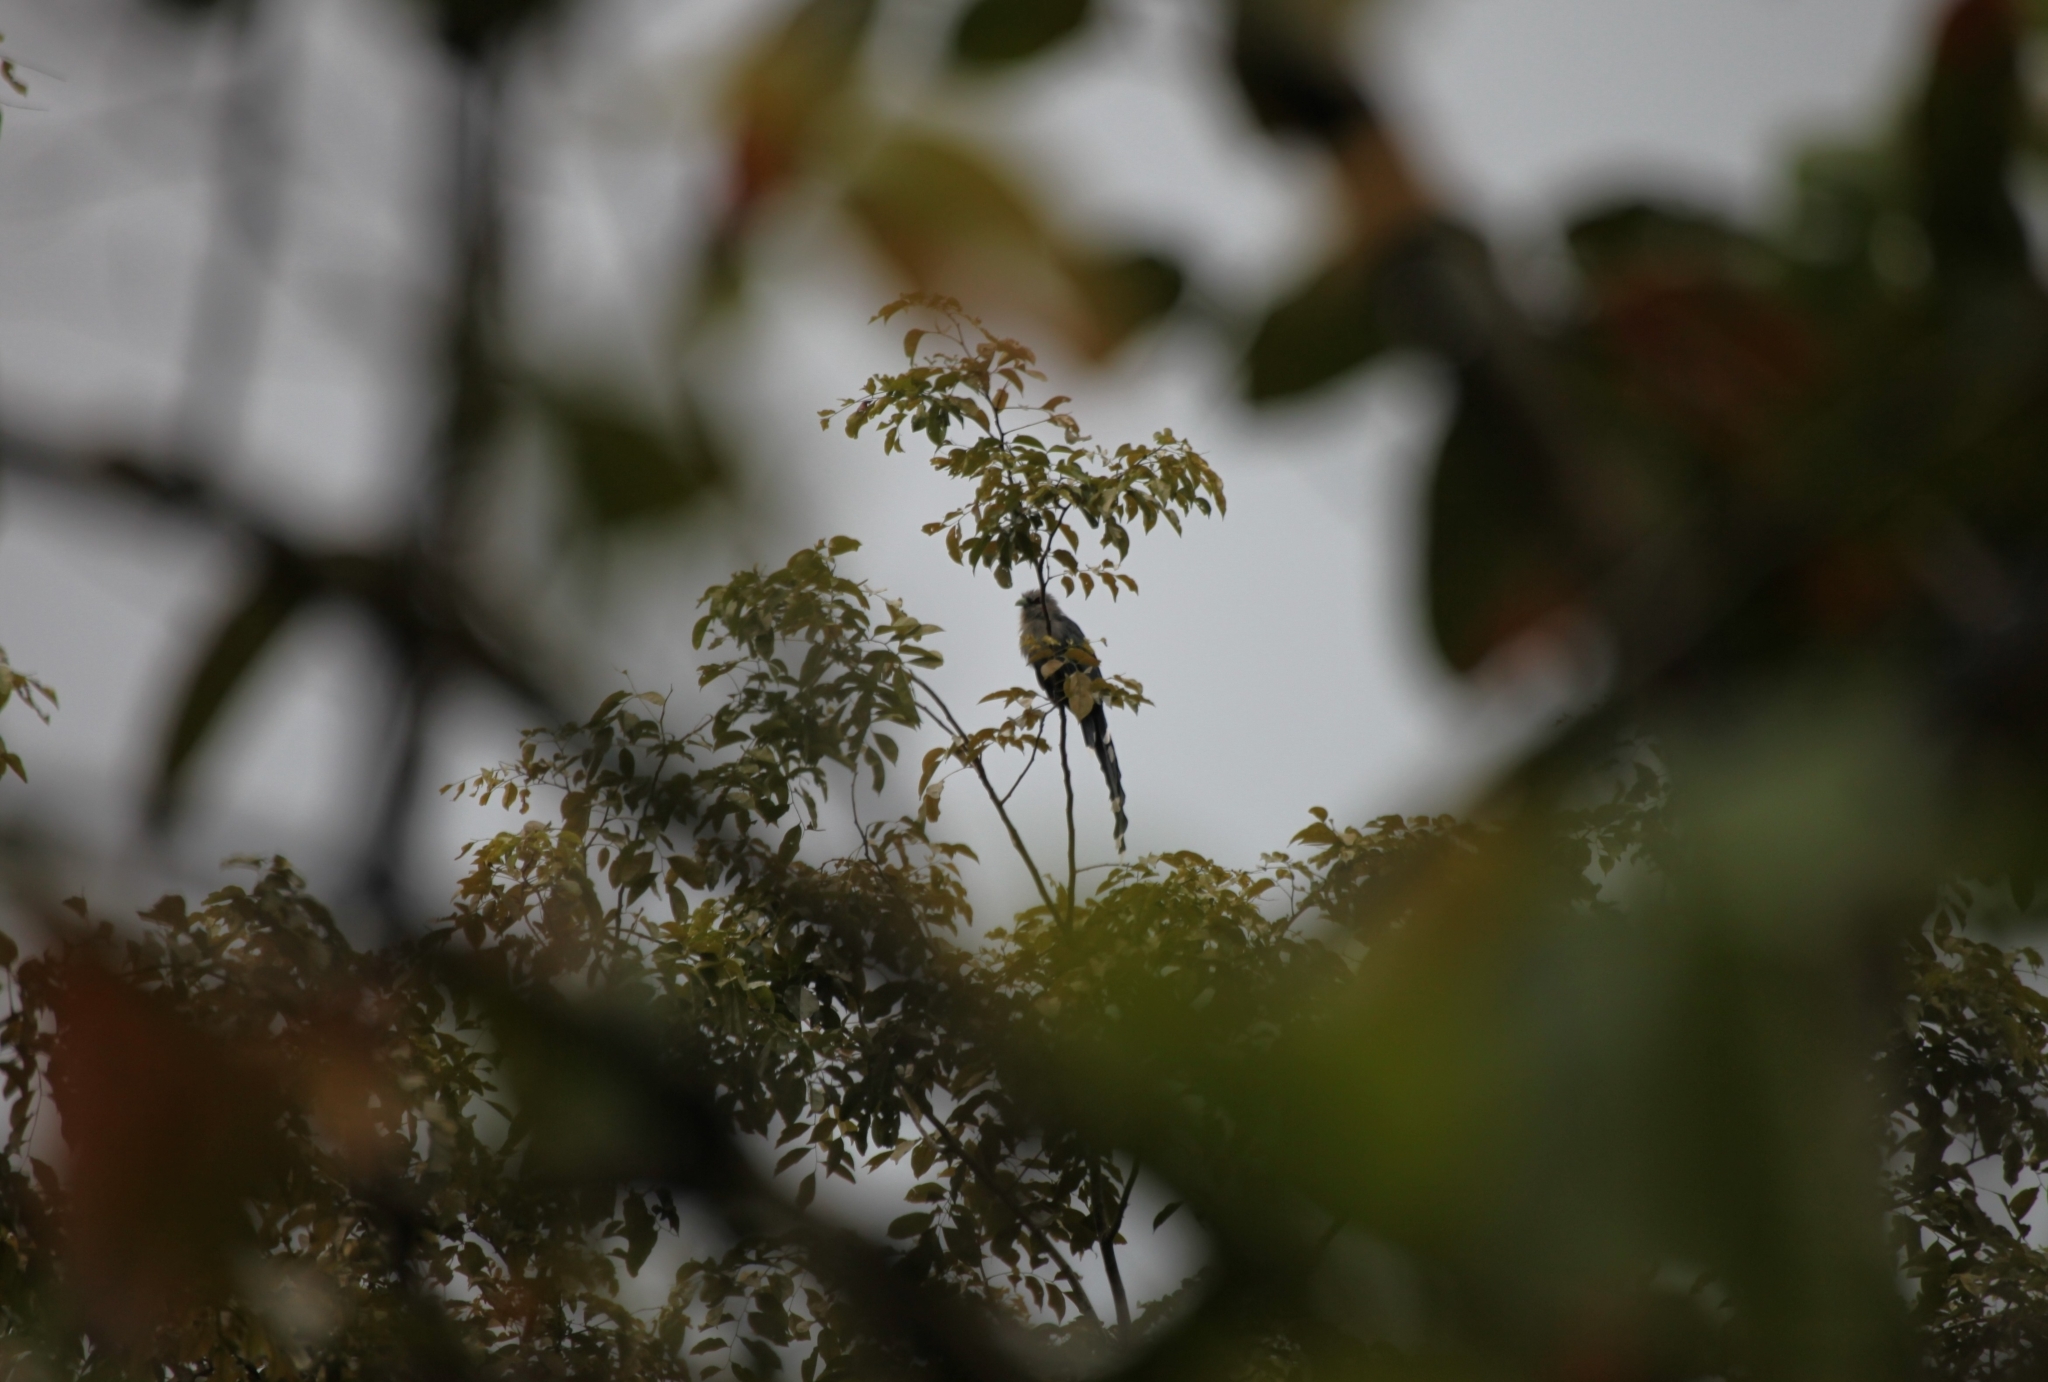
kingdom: Animalia
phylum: Chordata
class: Aves
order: Cuculiformes
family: Cuculidae
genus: Rhopodytes
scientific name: Rhopodytes tristis
